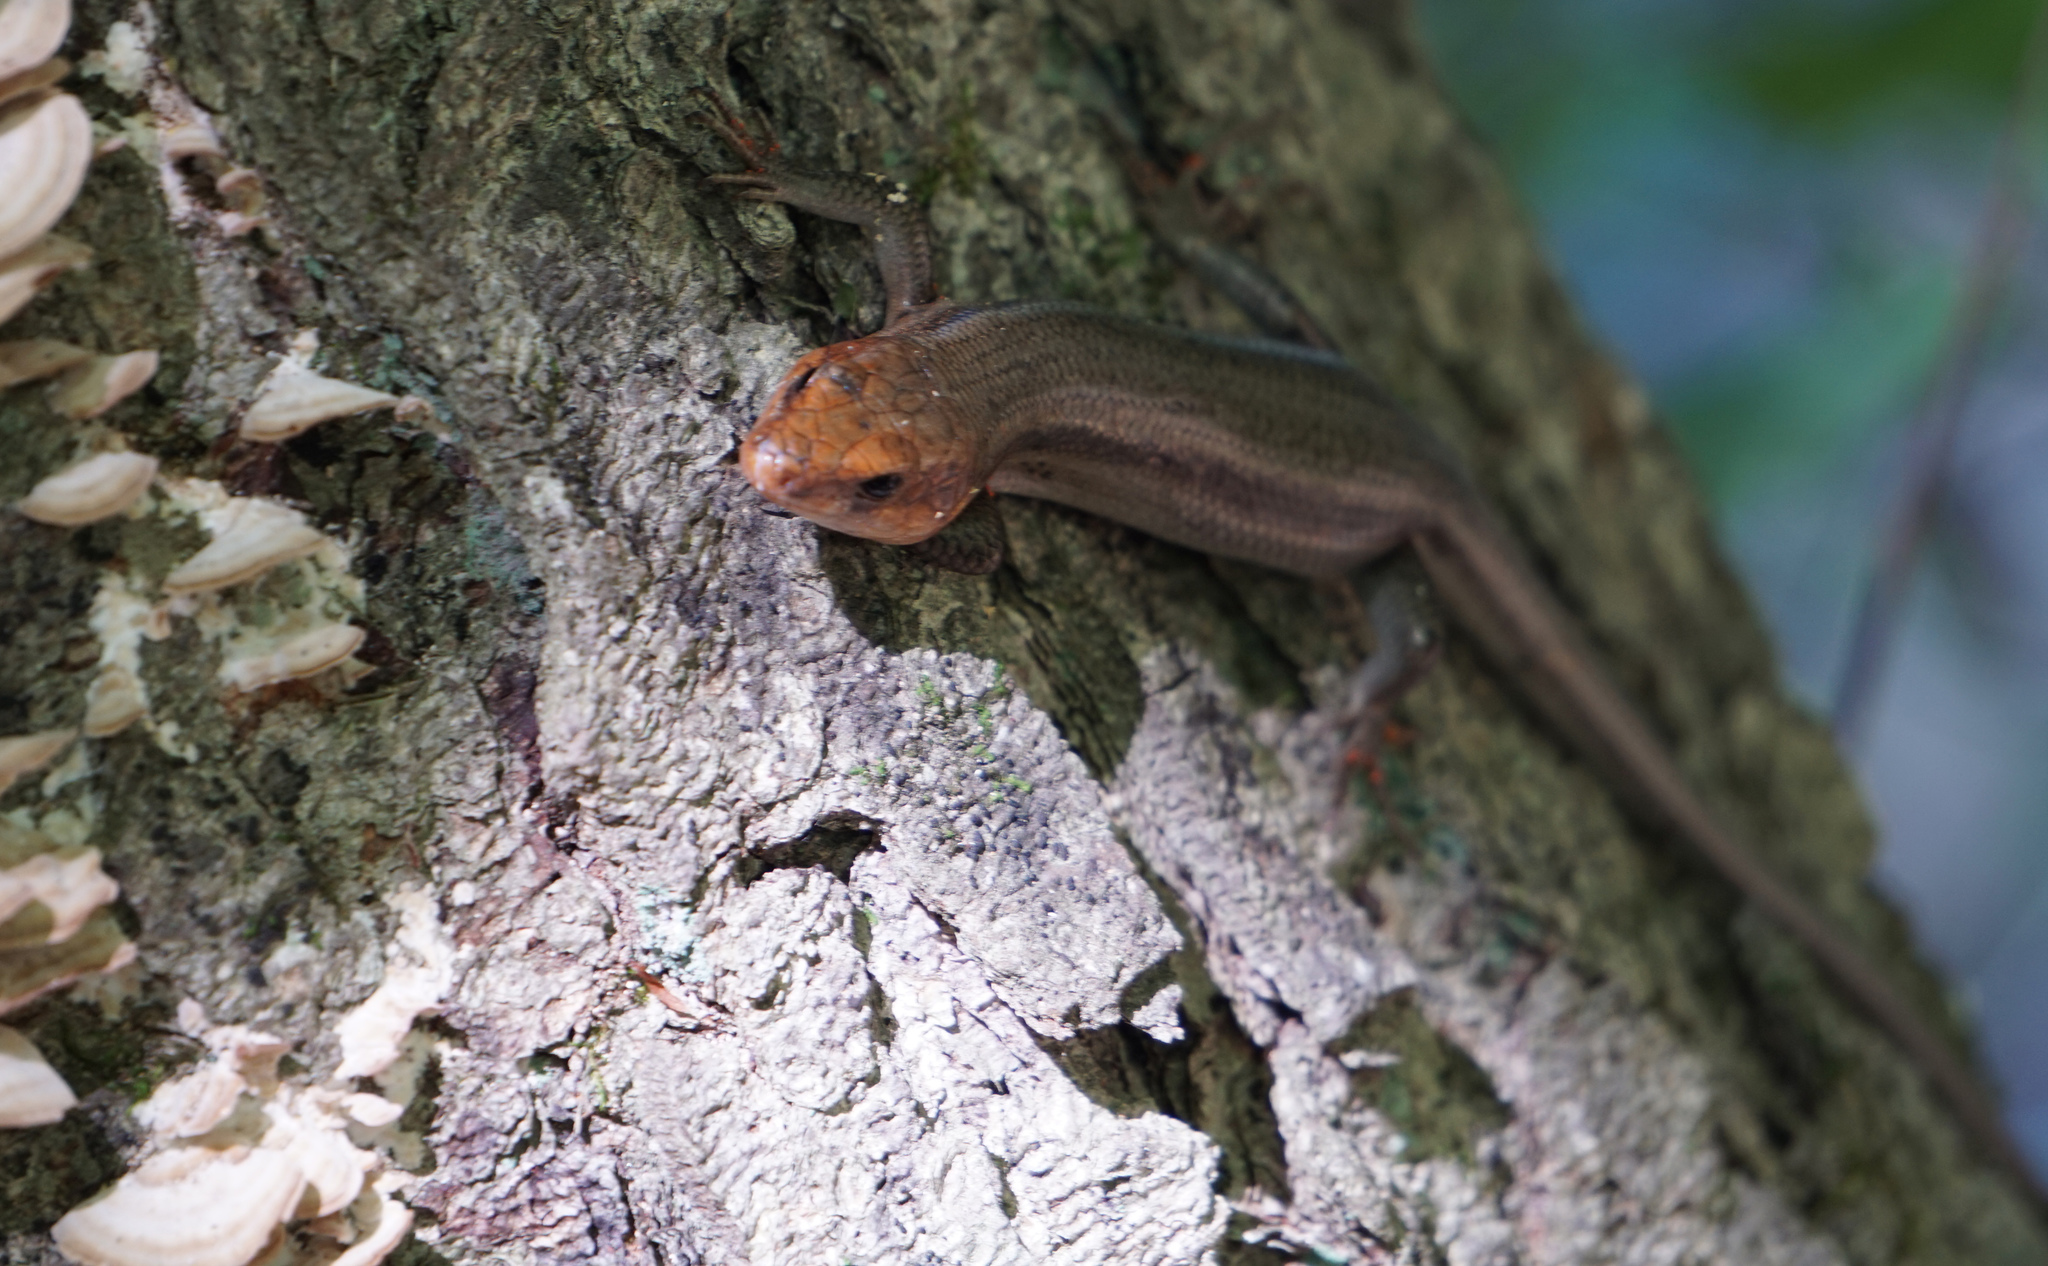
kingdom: Animalia
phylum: Chordata
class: Squamata
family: Scincidae
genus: Plestiodon
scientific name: Plestiodon fasciatus
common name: Five-lined skink
